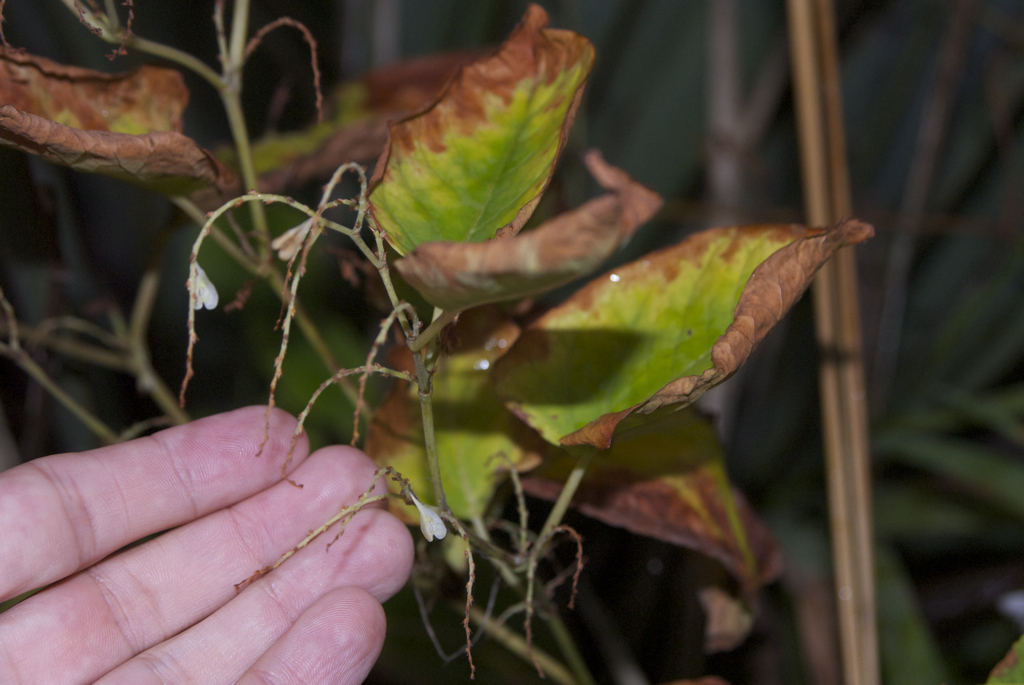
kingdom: Plantae
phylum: Tracheophyta
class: Magnoliopsida
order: Caryophyllales
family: Polygonaceae
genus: Reynoutria
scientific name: Reynoutria japonica
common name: Japanese knotweed
